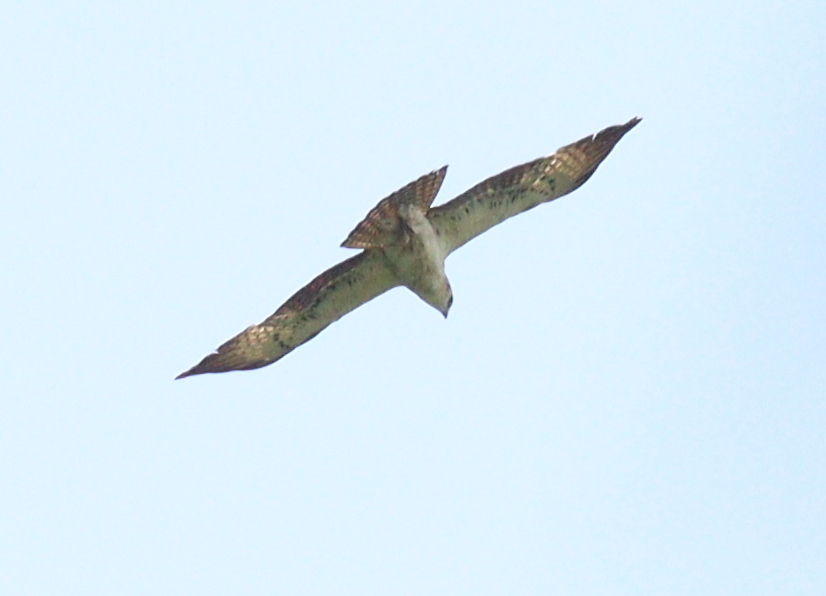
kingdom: Animalia
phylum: Chordata
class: Aves
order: Accipitriformes
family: Accipitridae
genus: Hieraaetus
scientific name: Hieraaetus ayresii
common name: Ayres's hawk-eagle
